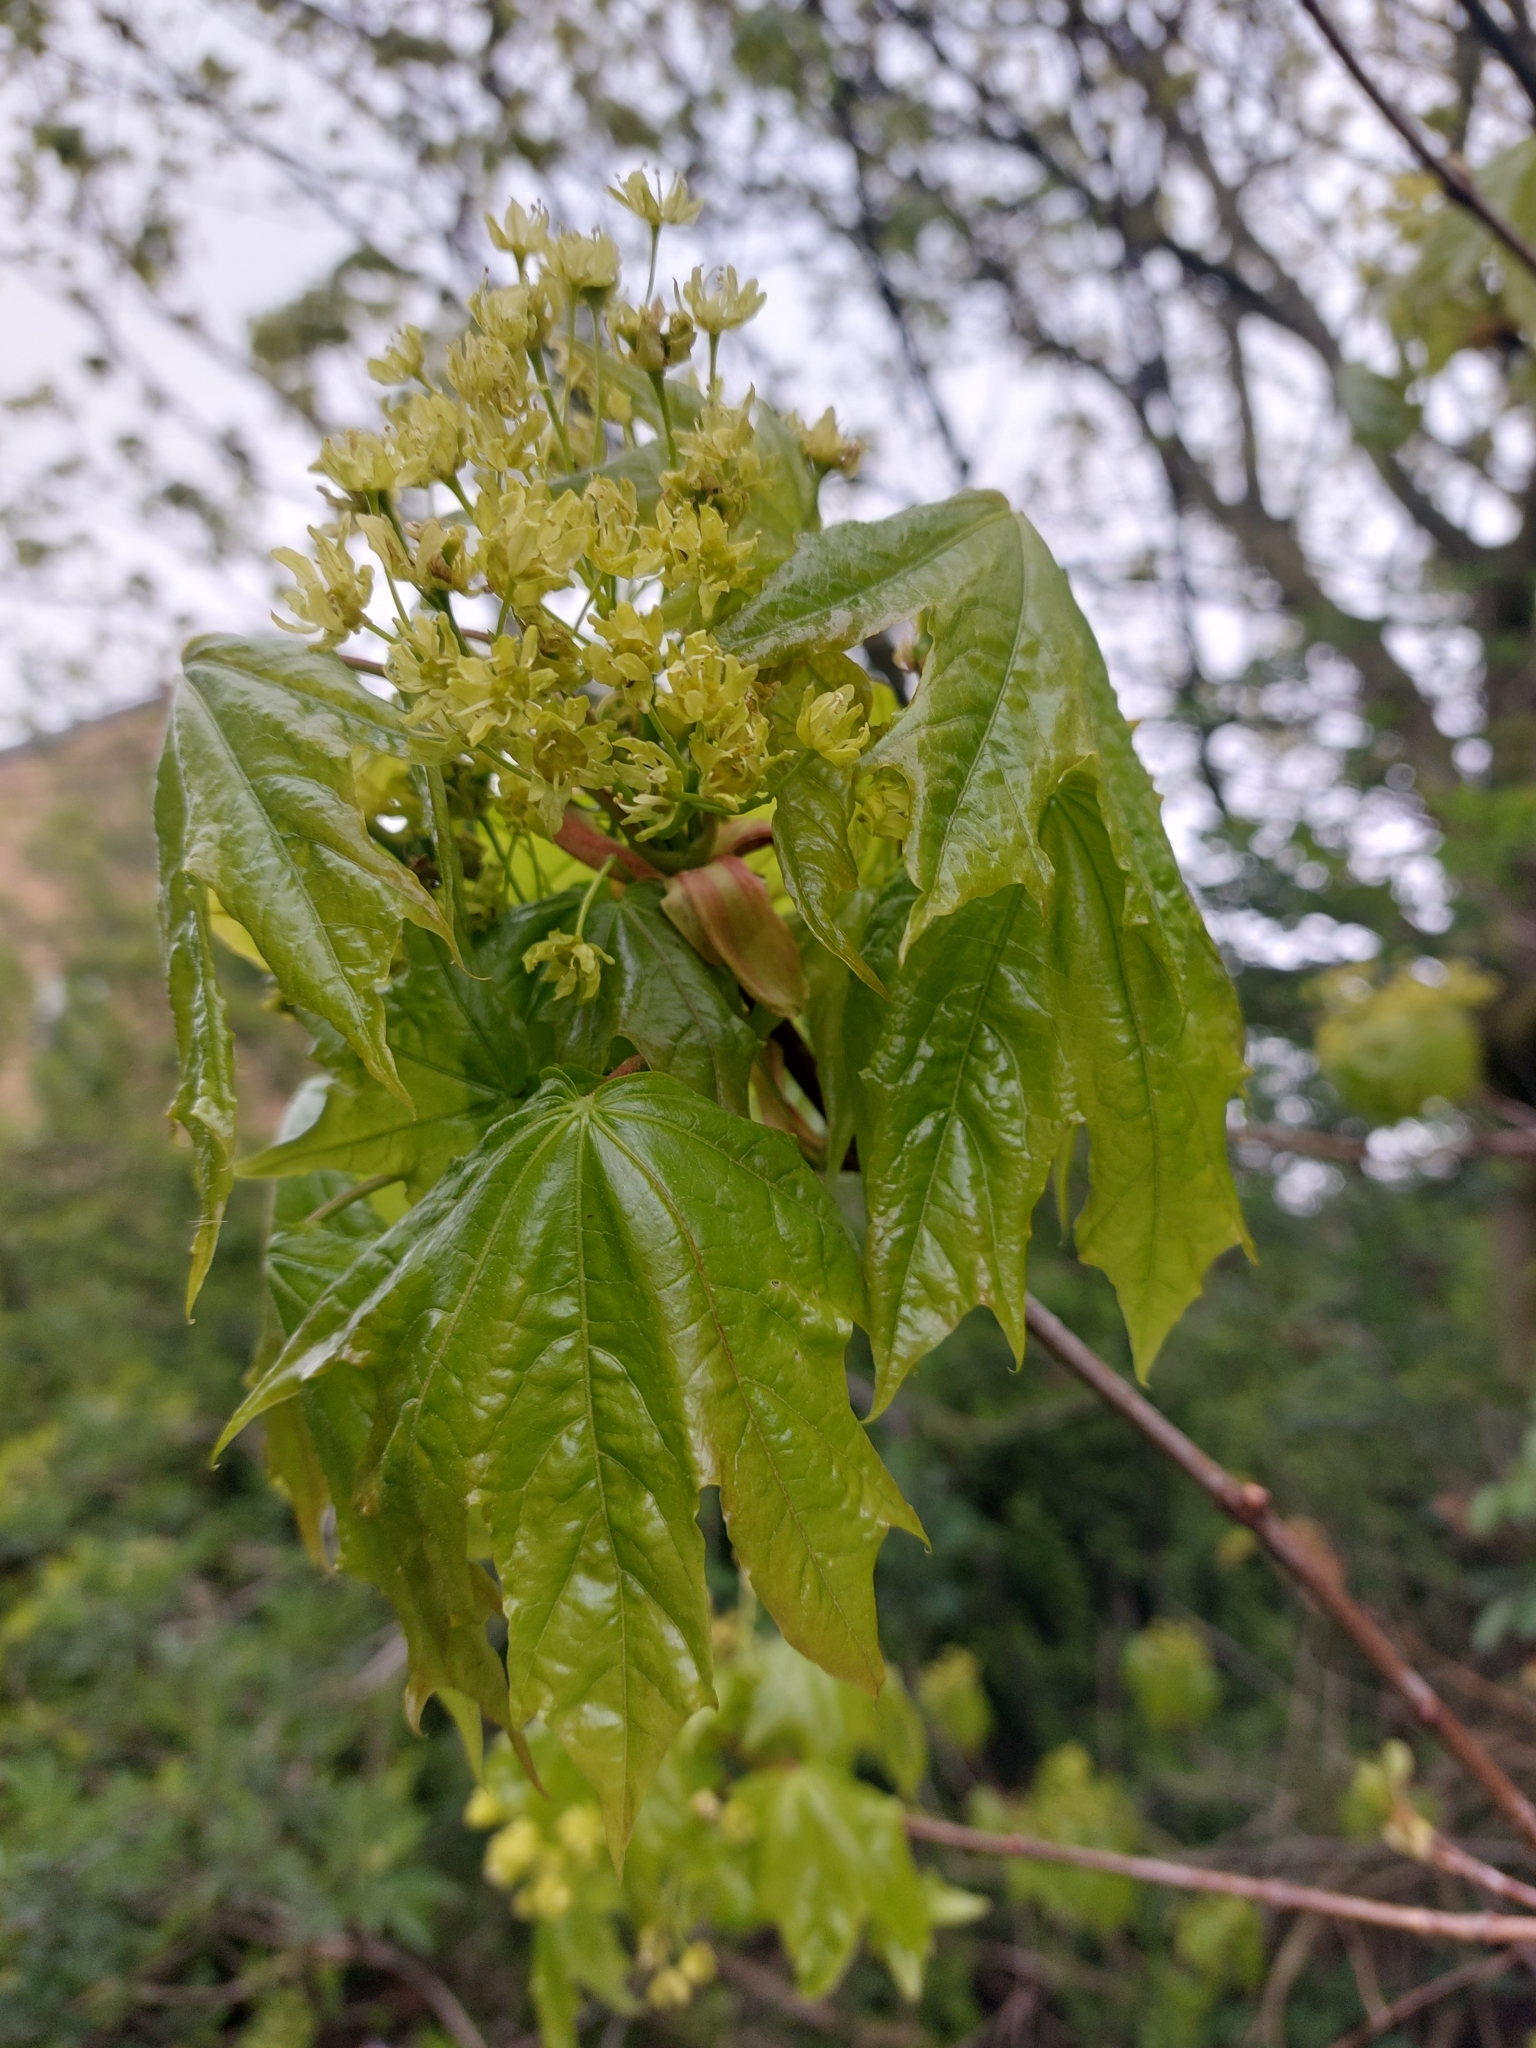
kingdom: Plantae
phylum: Tracheophyta
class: Magnoliopsida
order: Sapindales
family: Sapindaceae
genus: Acer
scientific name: Acer platanoides
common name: Norway maple
